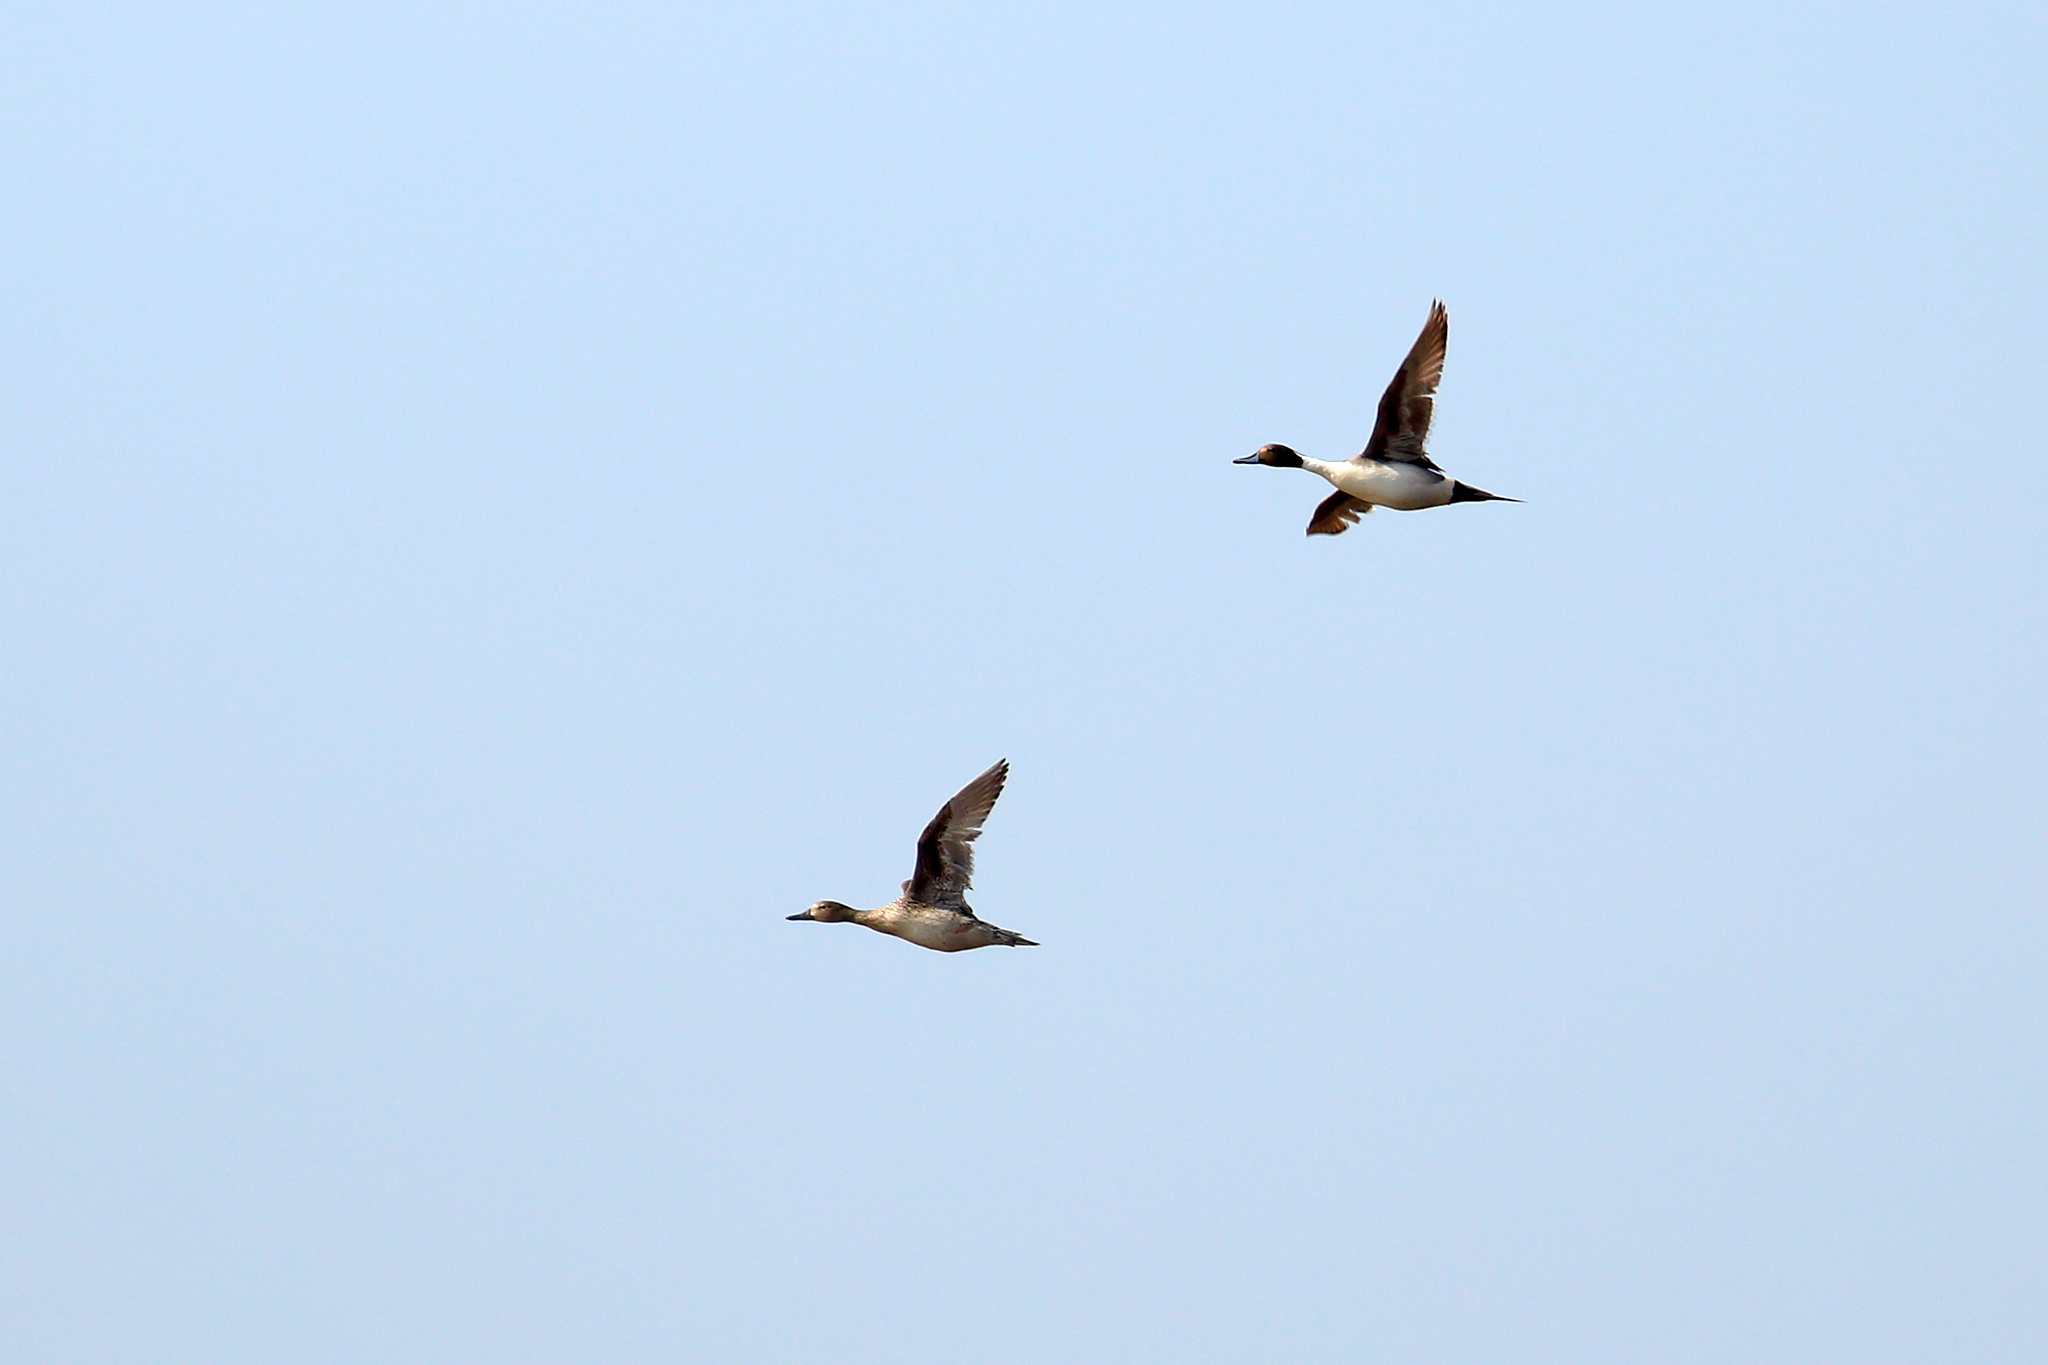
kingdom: Animalia
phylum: Chordata
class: Aves
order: Anseriformes
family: Anatidae
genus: Anas
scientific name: Anas acuta
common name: Northern pintail
